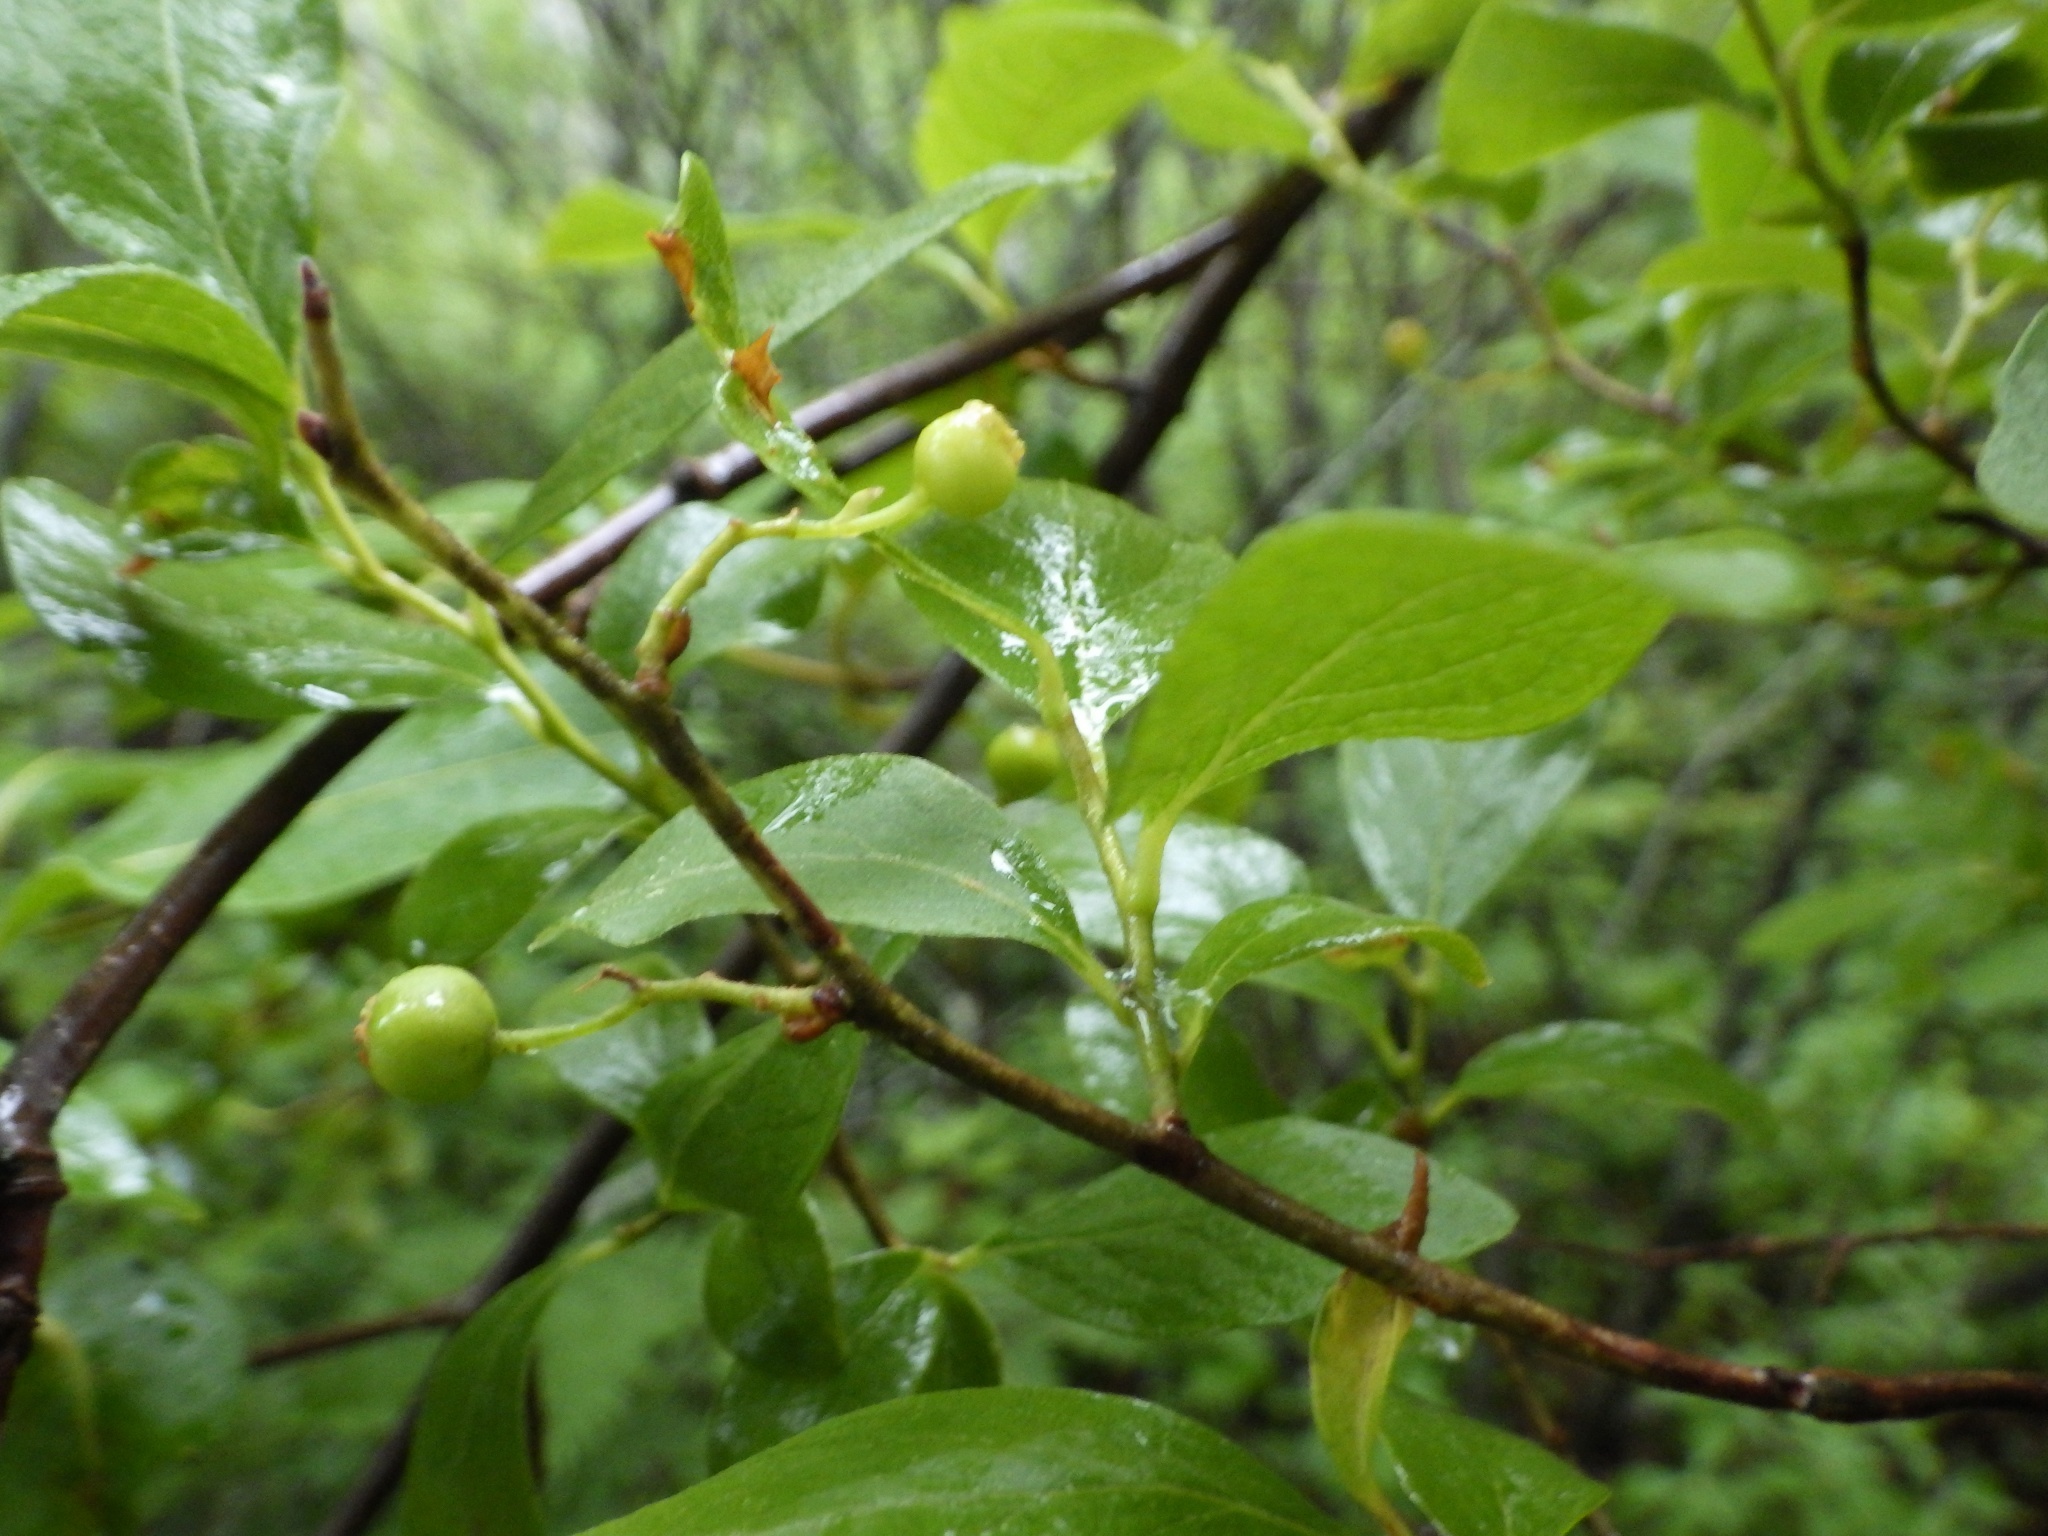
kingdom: Plantae
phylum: Tracheophyta
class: Magnoliopsida
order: Ericales
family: Ericaceae
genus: Gaylussacia
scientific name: Gaylussacia baccata
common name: Black huckleberry
